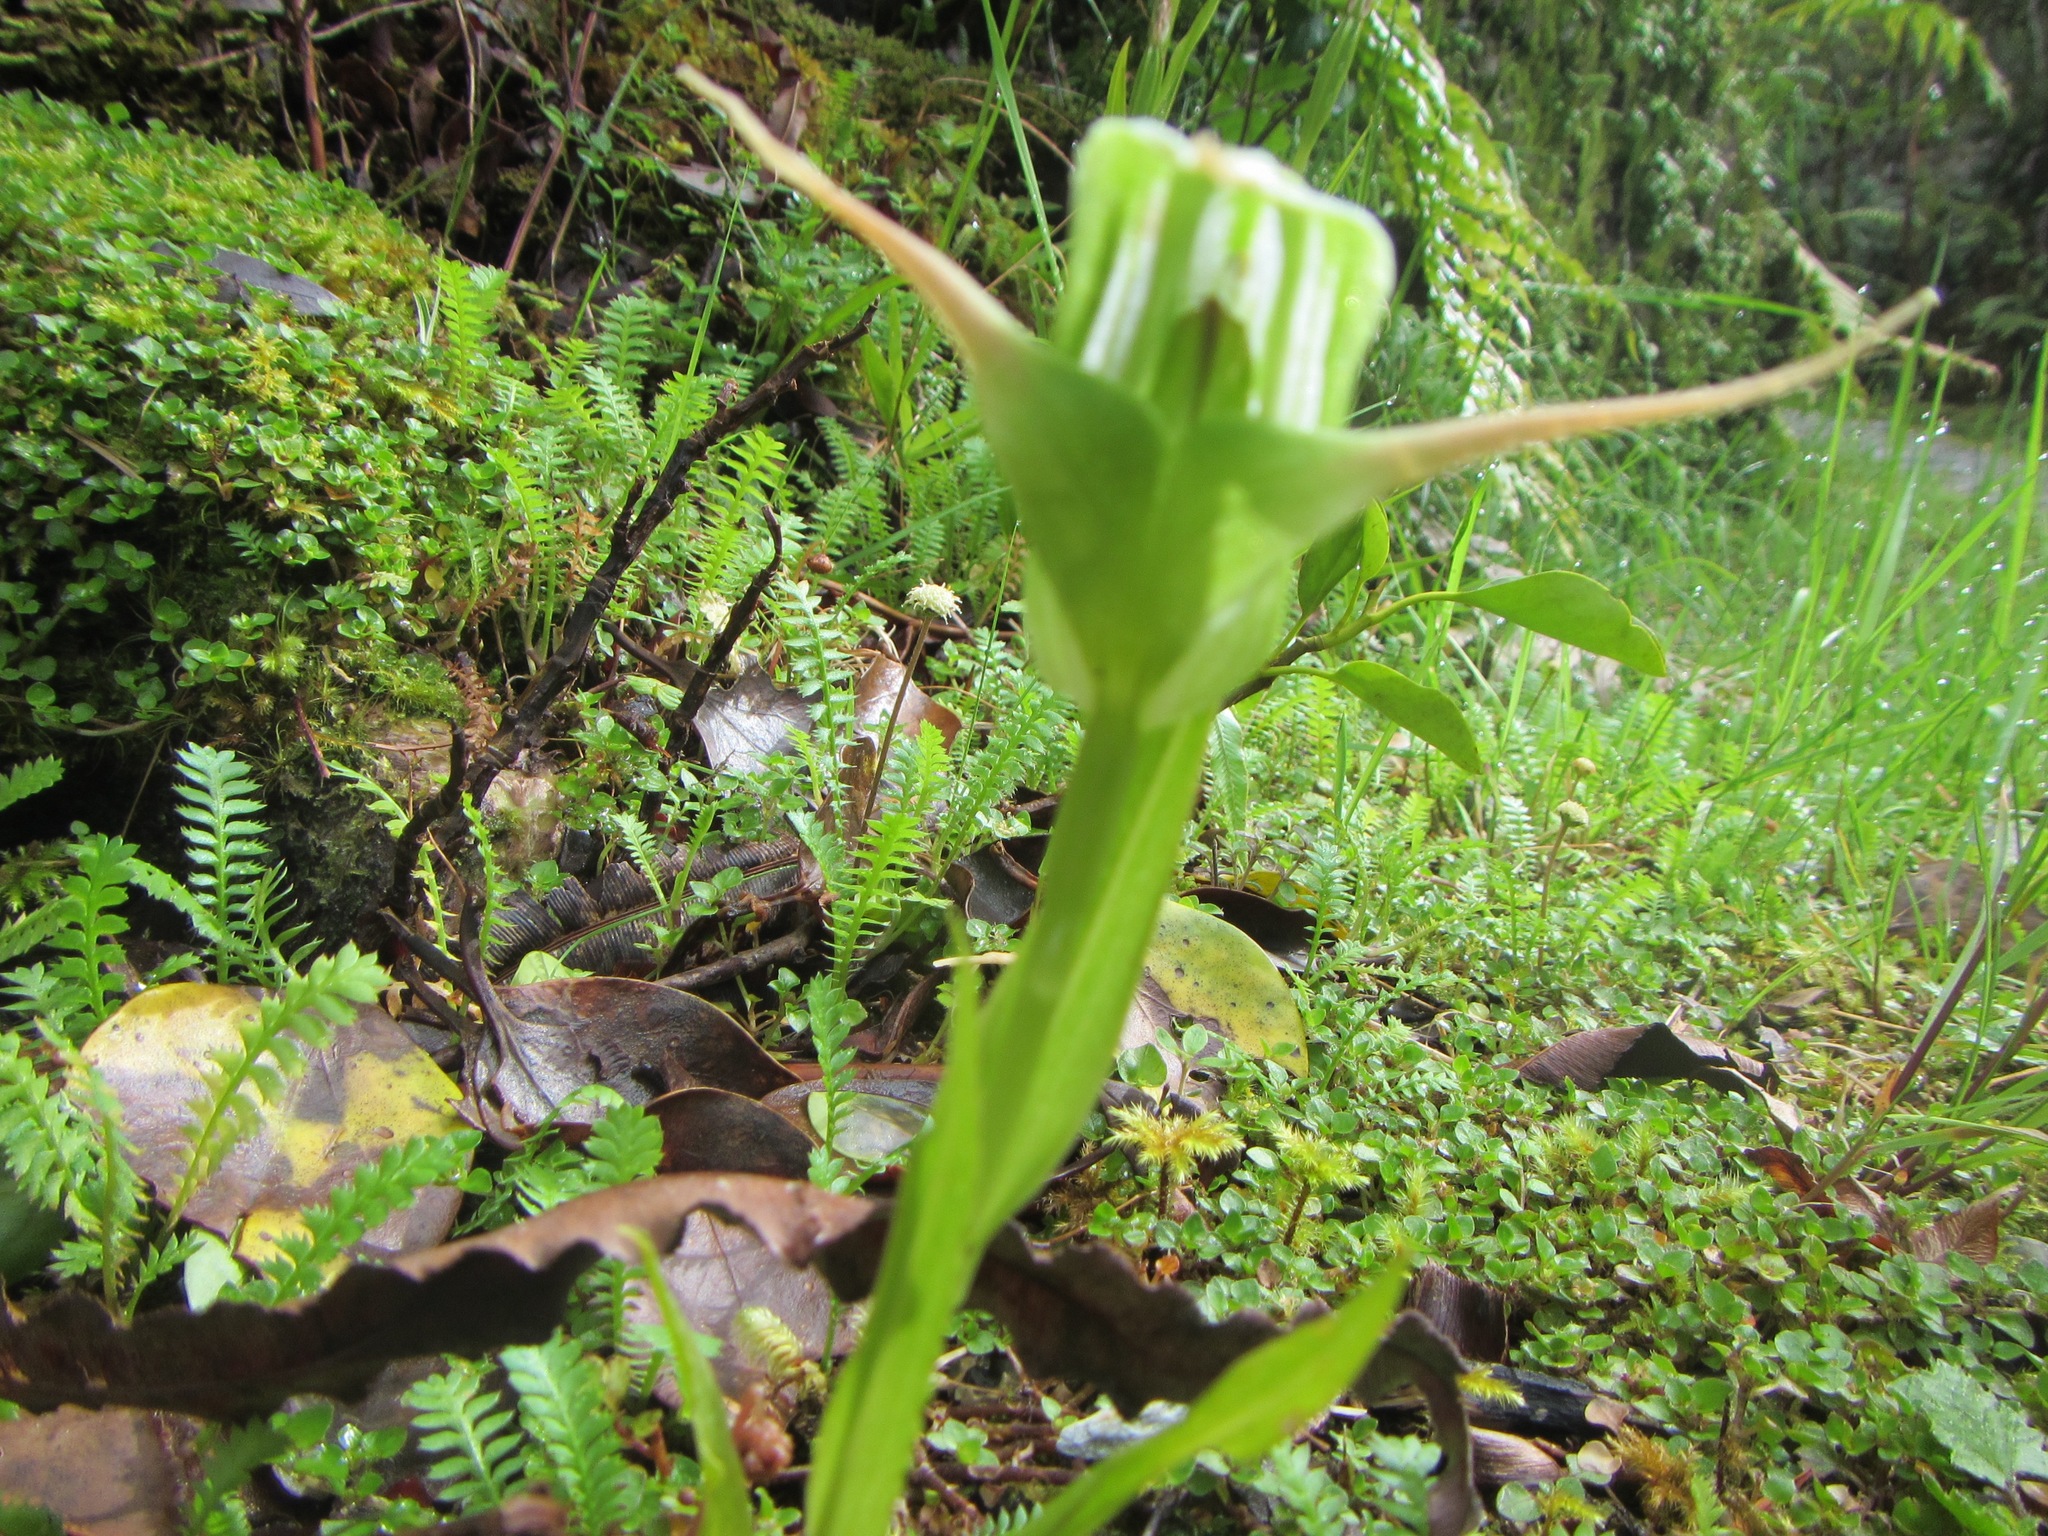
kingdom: Plantae
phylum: Tracheophyta
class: Liliopsida
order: Asparagales
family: Orchidaceae
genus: Pterostylis
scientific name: Pterostylis australis
